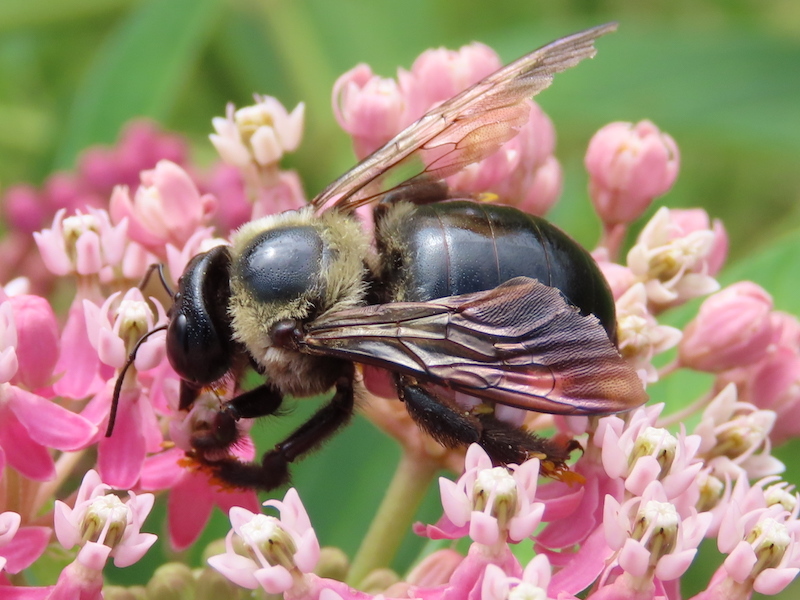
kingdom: Animalia
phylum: Arthropoda
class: Insecta
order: Hymenoptera
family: Apidae
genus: Xylocopa
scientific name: Xylocopa virginica
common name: Carpenter bee
